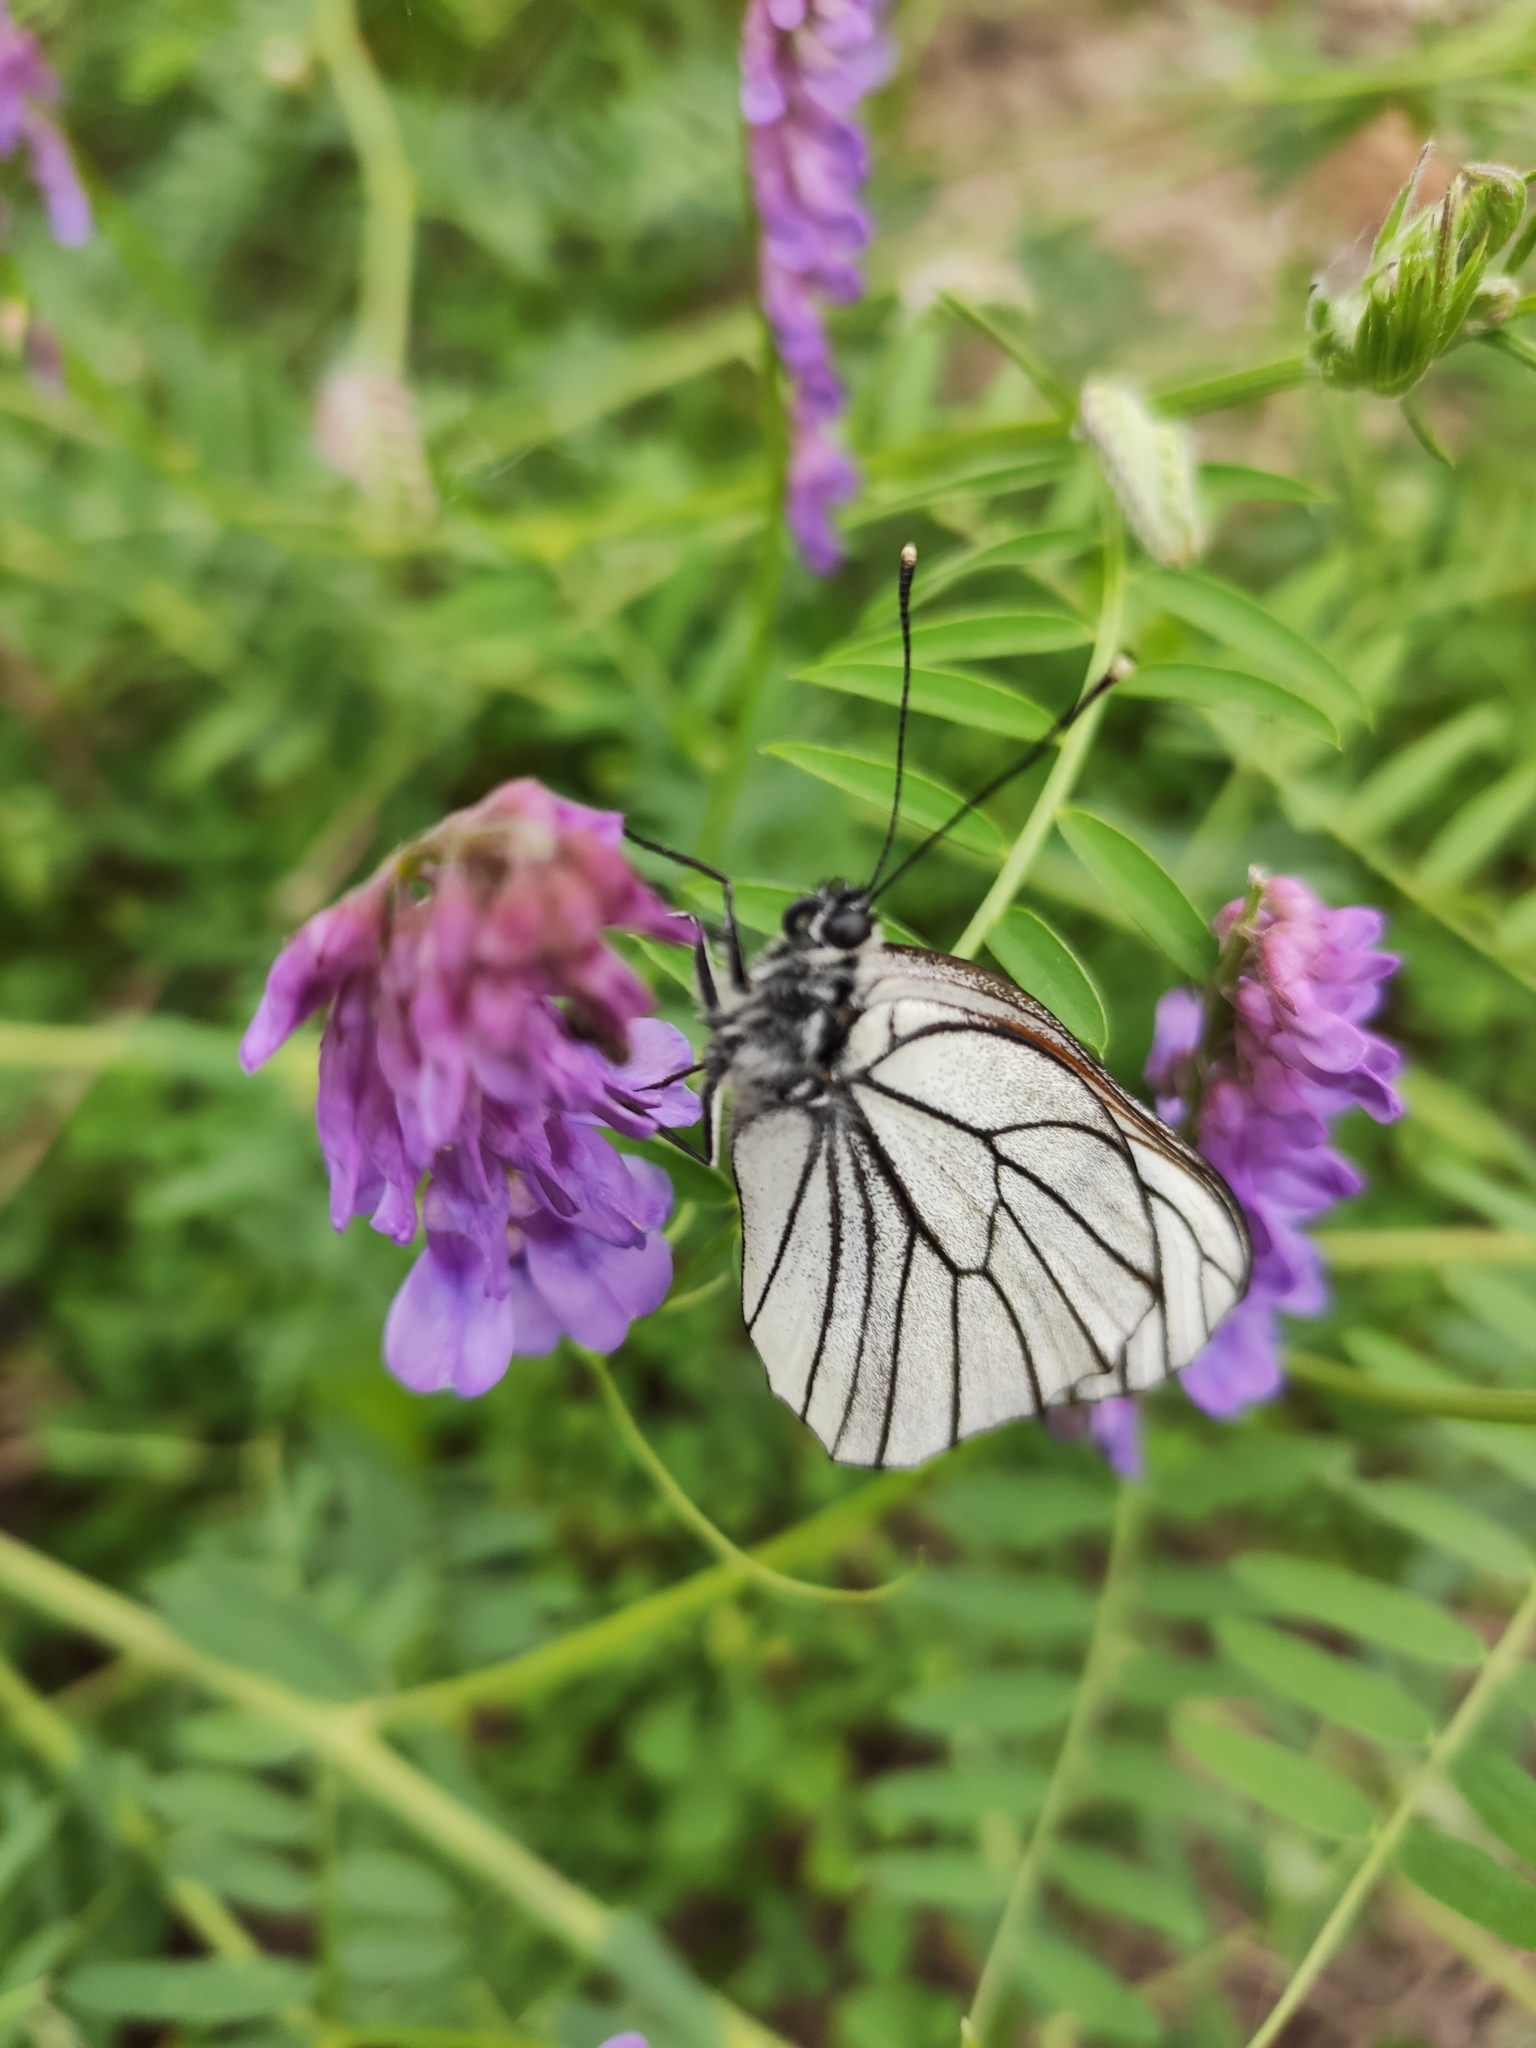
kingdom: Animalia
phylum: Arthropoda
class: Insecta
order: Lepidoptera
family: Pieridae
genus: Aporia
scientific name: Aporia crataegi
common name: Black-veined white
